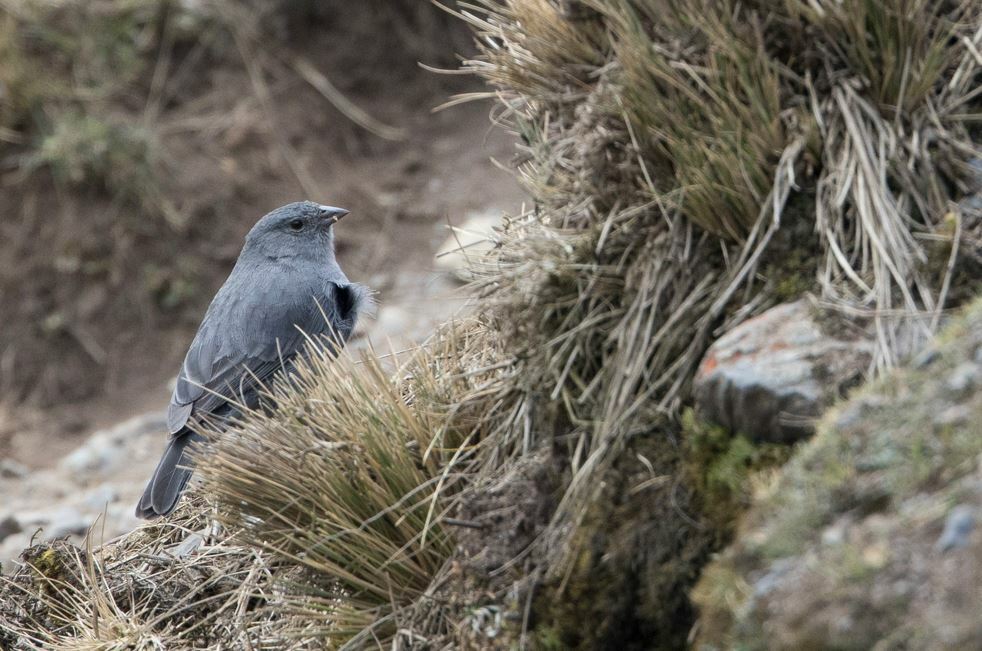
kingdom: Animalia
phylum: Chordata
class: Aves
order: Passeriformes
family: Thraupidae
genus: Geospizopsis
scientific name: Geospizopsis unicolor
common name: Plumbeous sierra-finch
